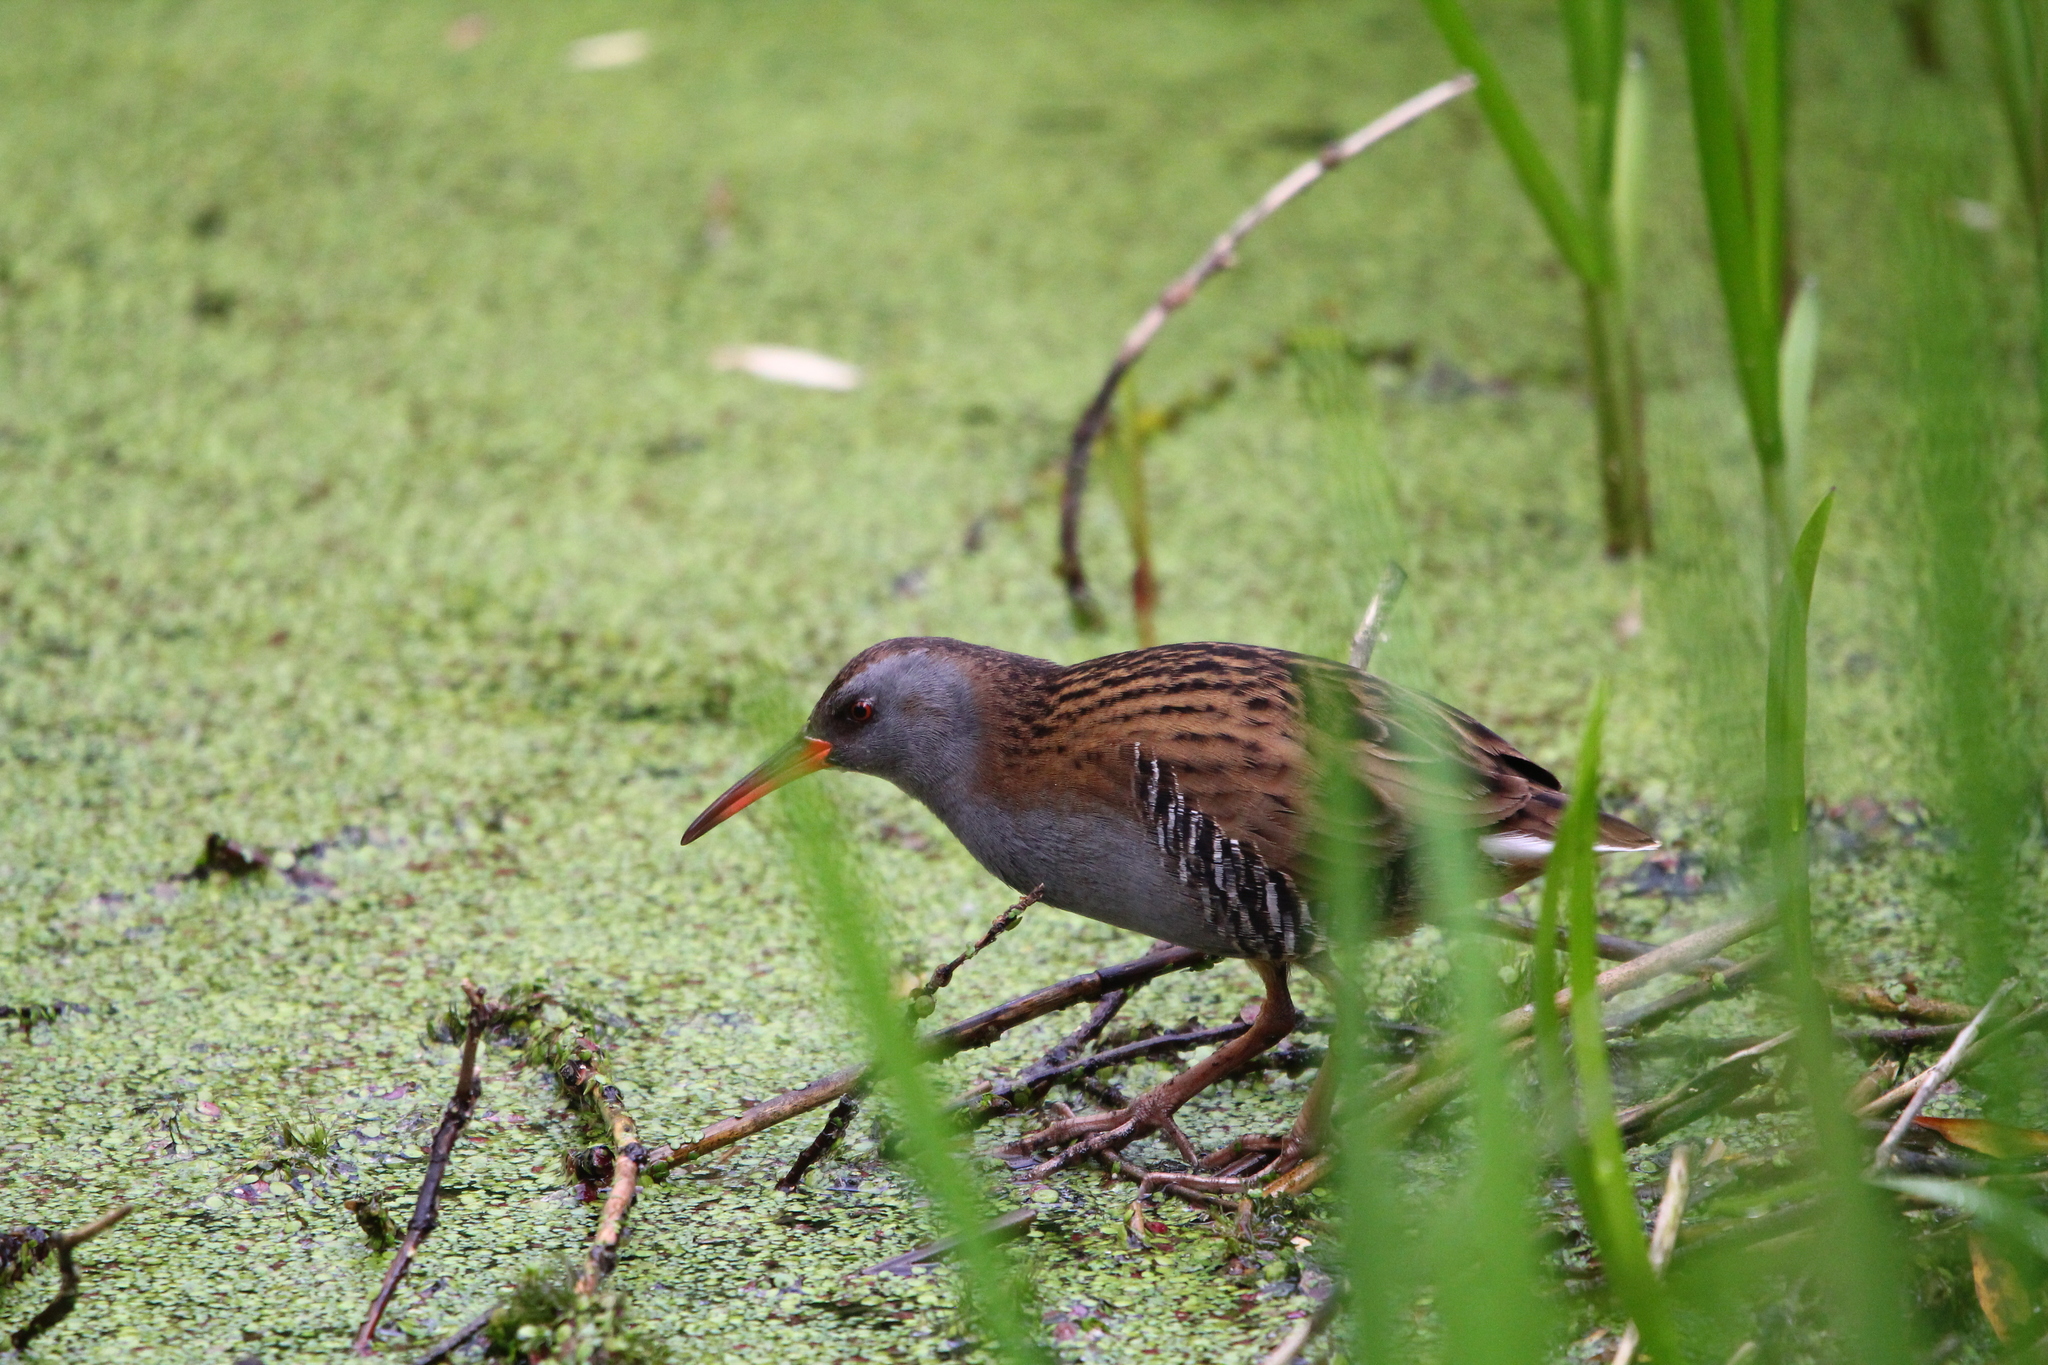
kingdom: Animalia
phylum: Chordata
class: Aves
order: Gruiformes
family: Rallidae
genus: Rallus
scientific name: Rallus aquaticus
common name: Water rail
